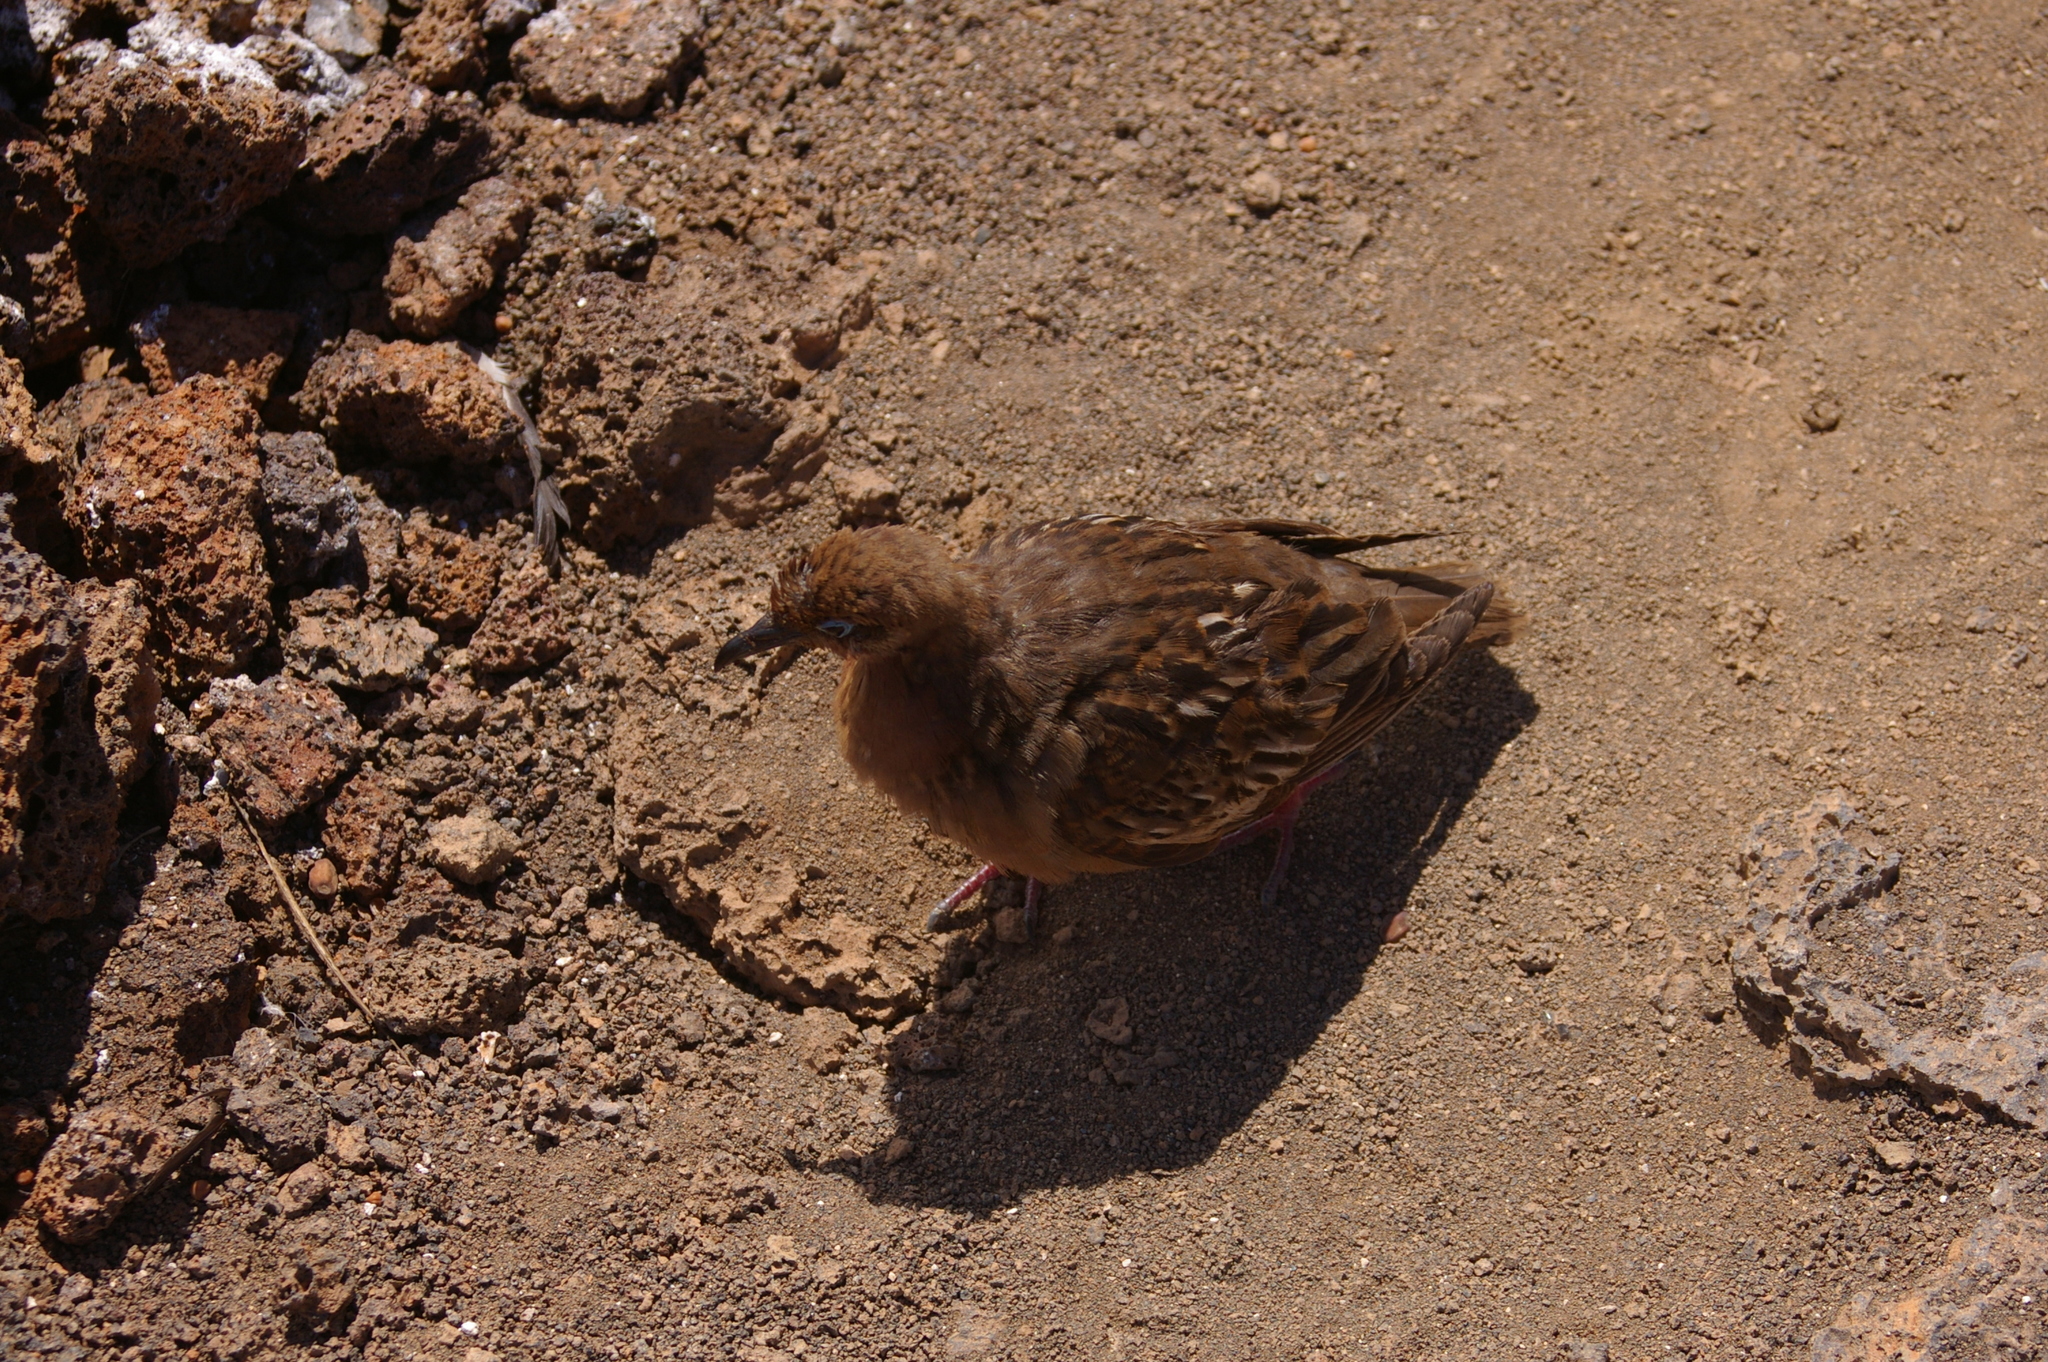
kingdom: Animalia
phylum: Chordata
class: Aves
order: Columbiformes
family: Columbidae
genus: Zenaida
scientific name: Zenaida galapagoensis
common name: Galapagos dove
